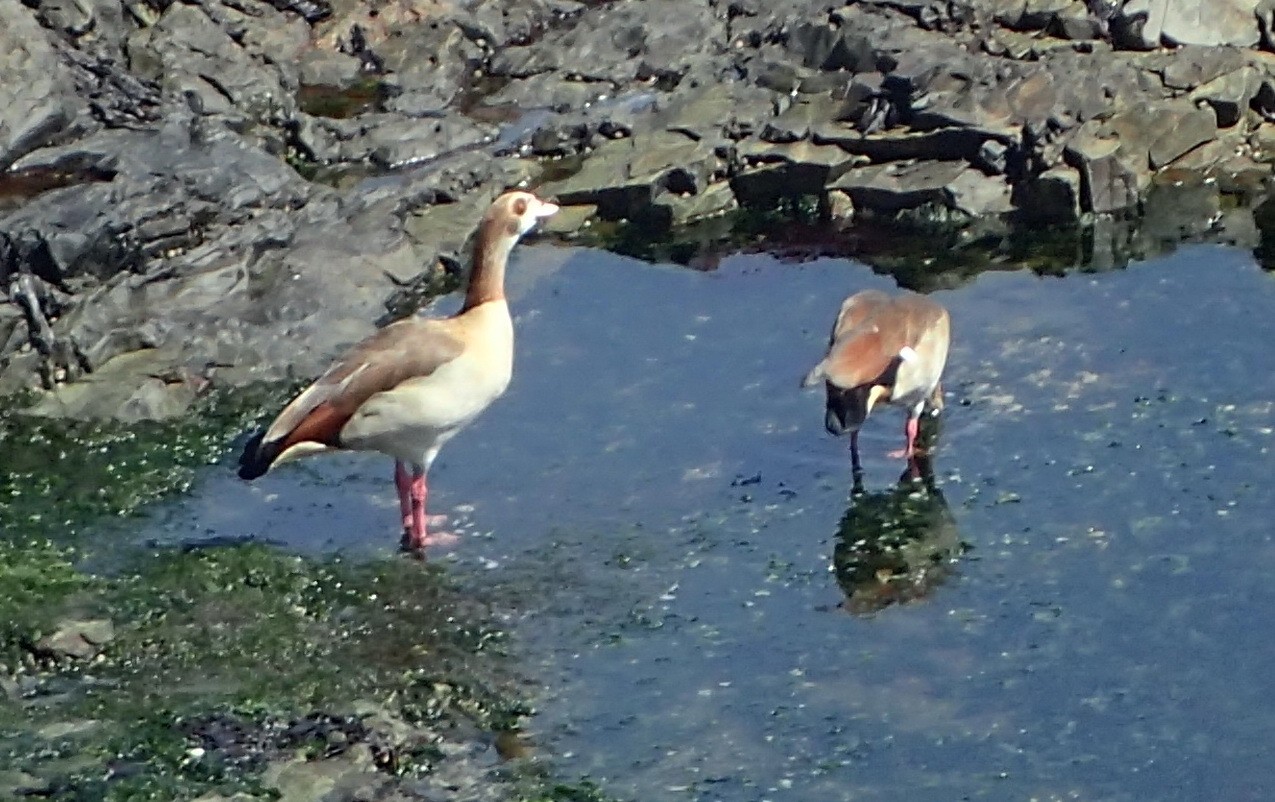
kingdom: Animalia
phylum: Chordata
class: Aves
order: Anseriformes
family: Anatidae
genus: Alopochen
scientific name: Alopochen aegyptiaca
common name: Egyptian goose
